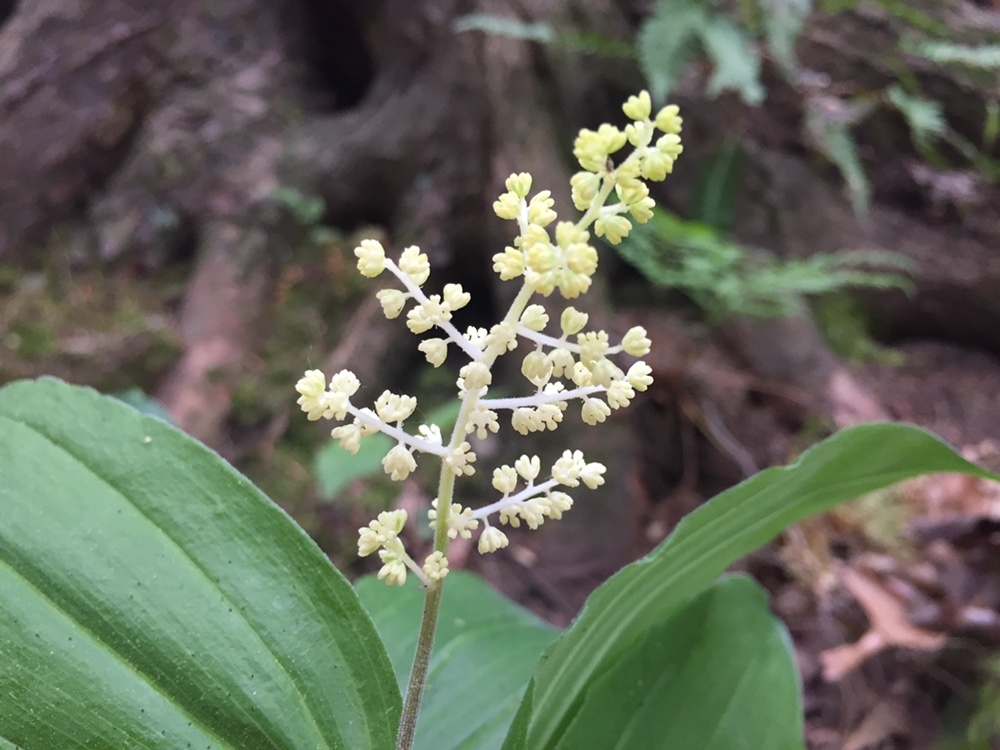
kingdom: Plantae
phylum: Tracheophyta
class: Liliopsida
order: Asparagales
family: Asparagaceae
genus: Maianthemum
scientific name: Maianthemum racemosum
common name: False spikenard
